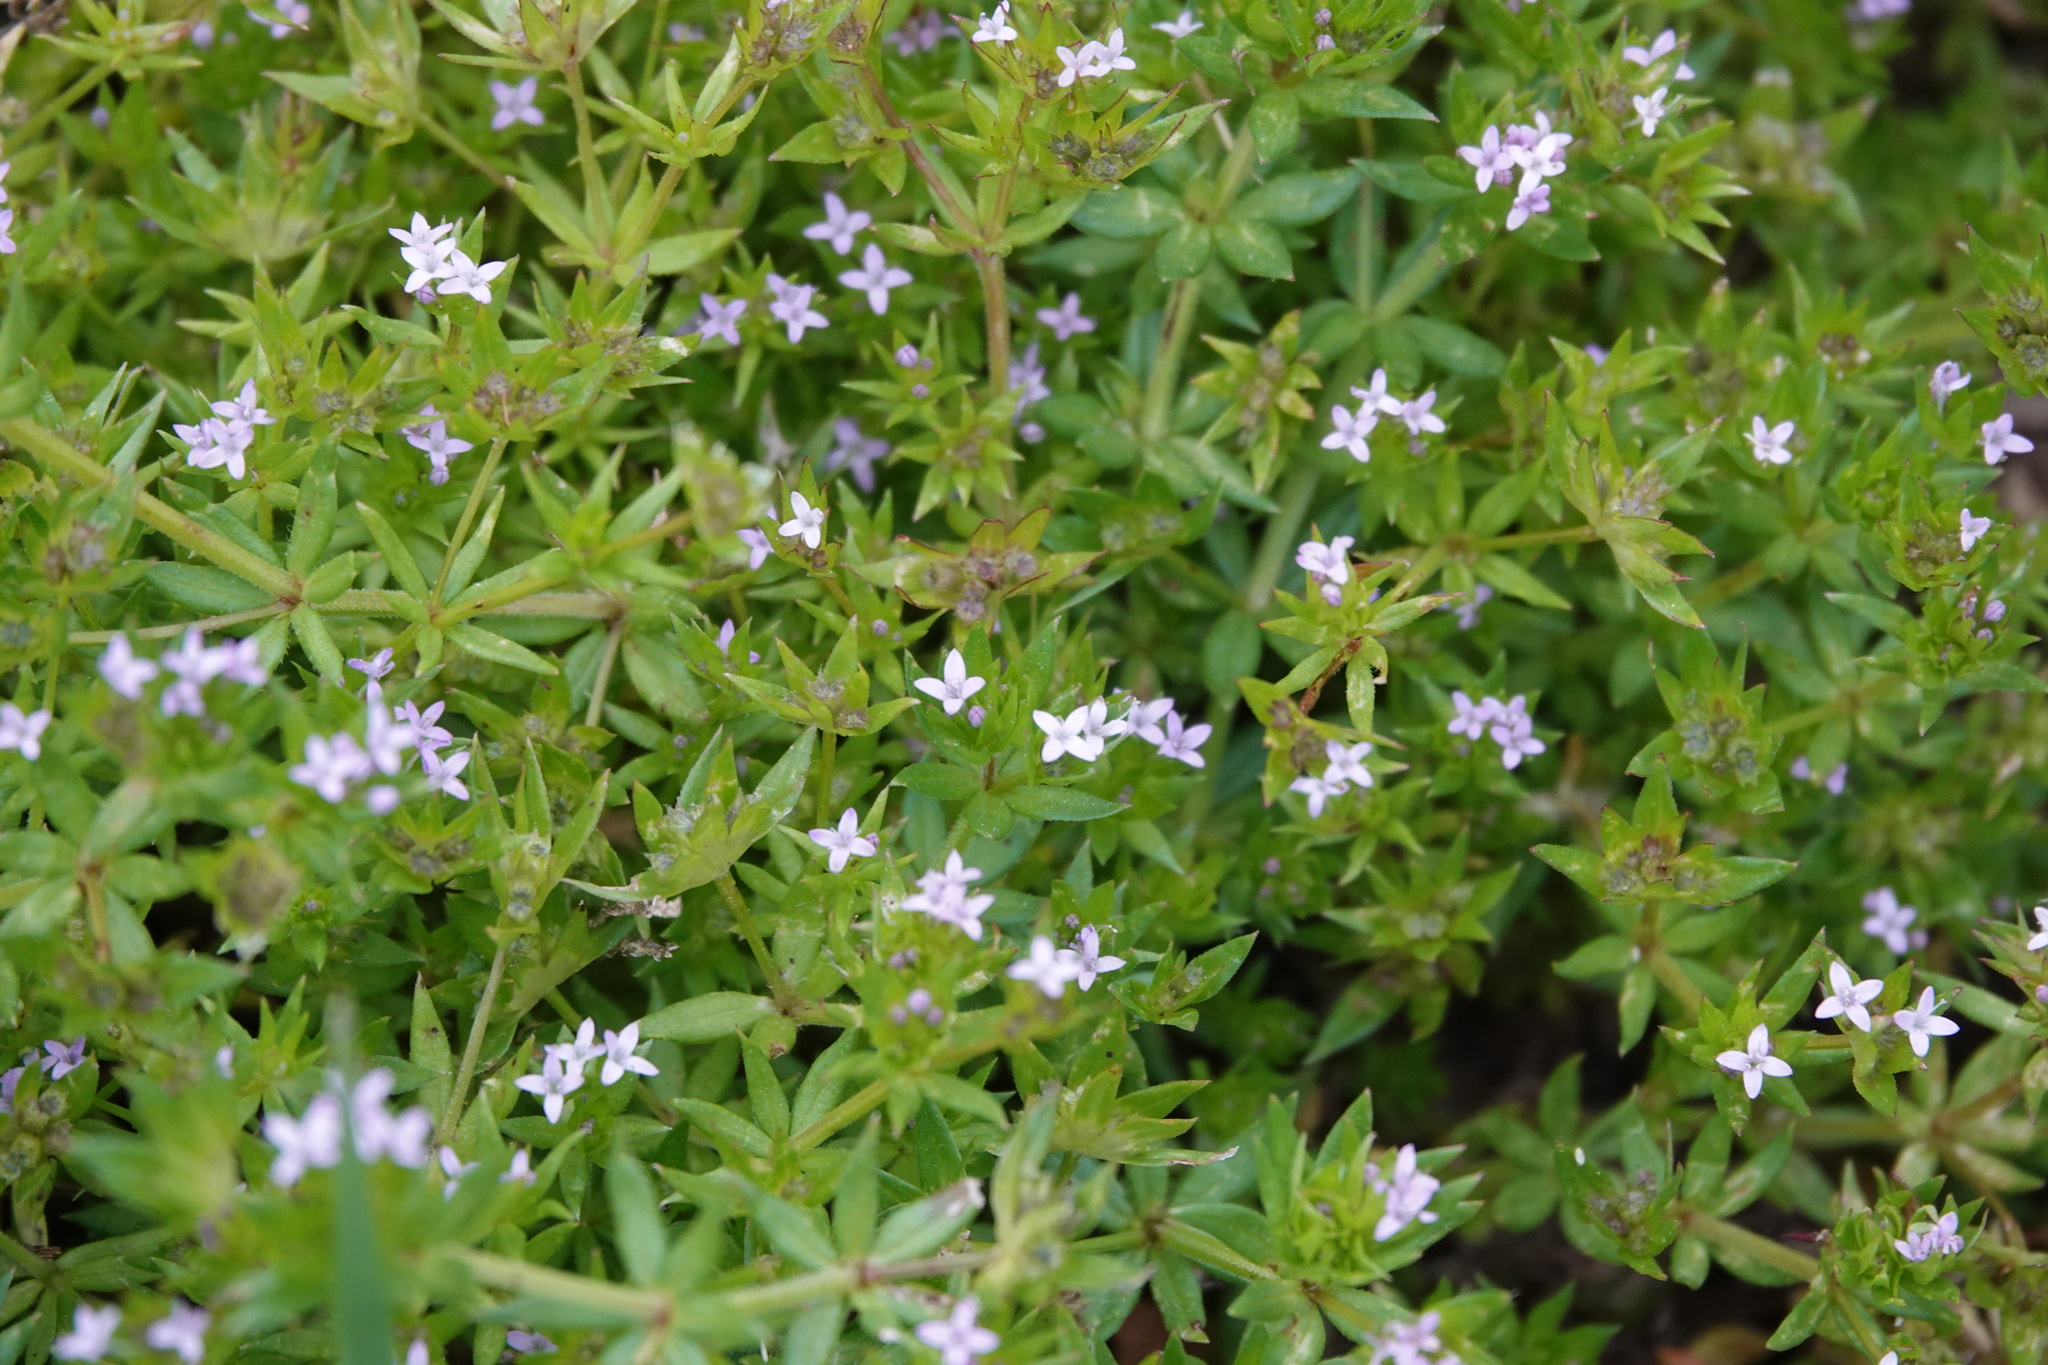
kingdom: Plantae
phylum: Tracheophyta
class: Magnoliopsida
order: Gentianales
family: Rubiaceae
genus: Sherardia
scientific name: Sherardia arvensis
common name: Field madder
